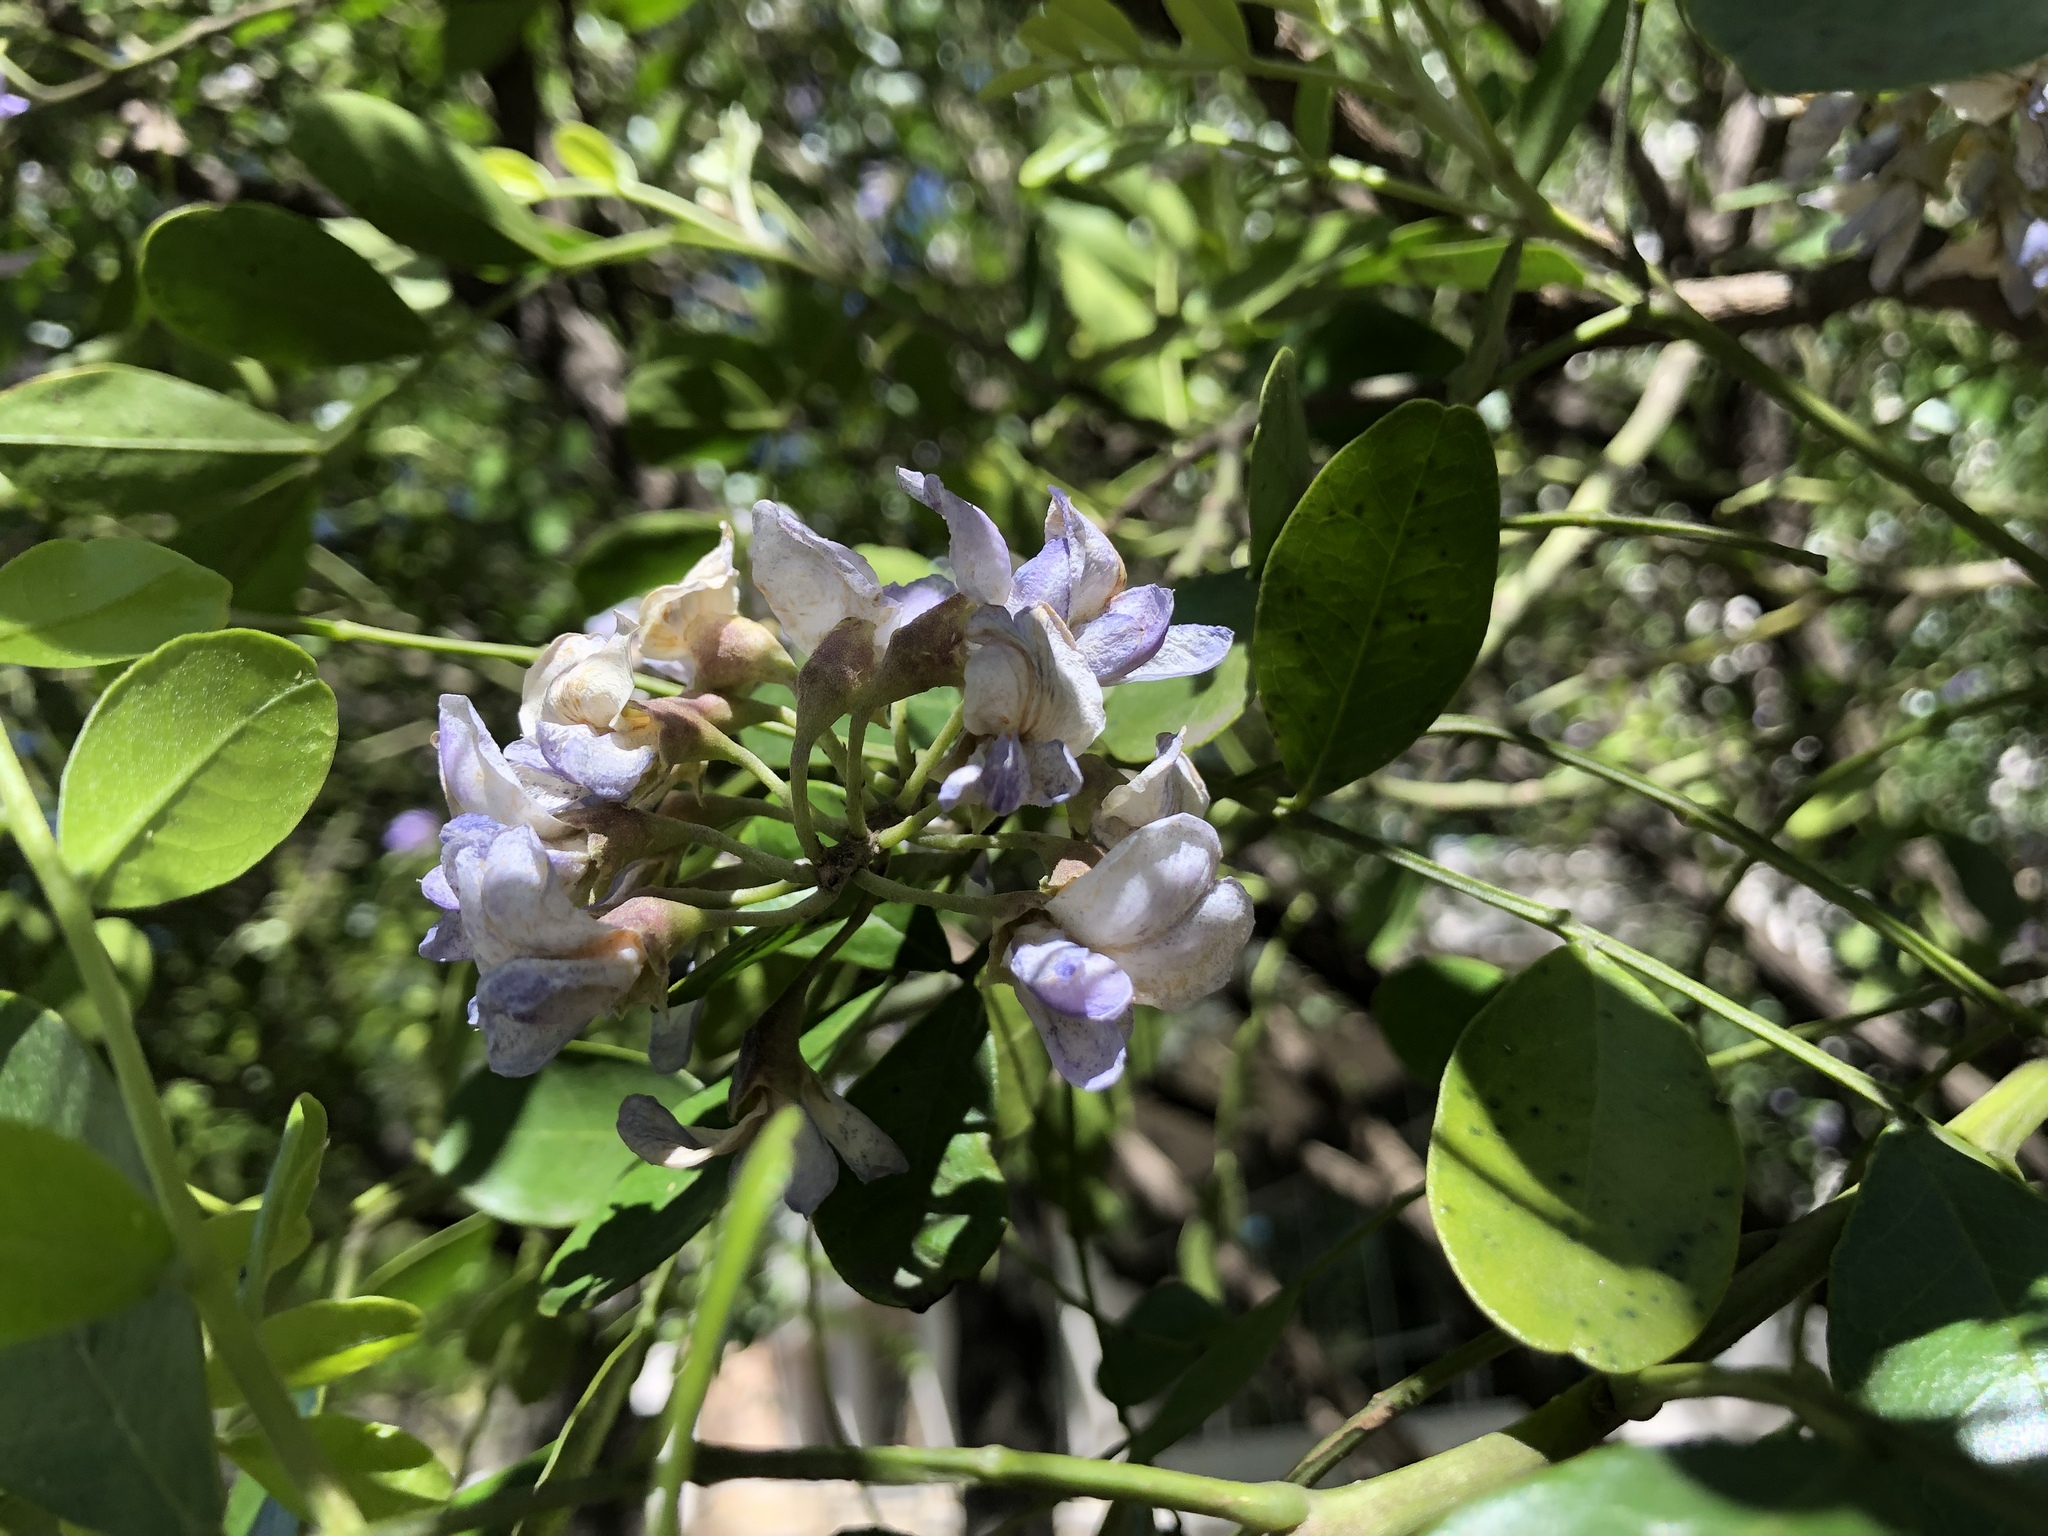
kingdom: Plantae
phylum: Tracheophyta
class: Magnoliopsida
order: Fabales
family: Fabaceae
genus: Dermatophyllum
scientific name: Dermatophyllum secundiflorum
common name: Texas-mountain-laurel
